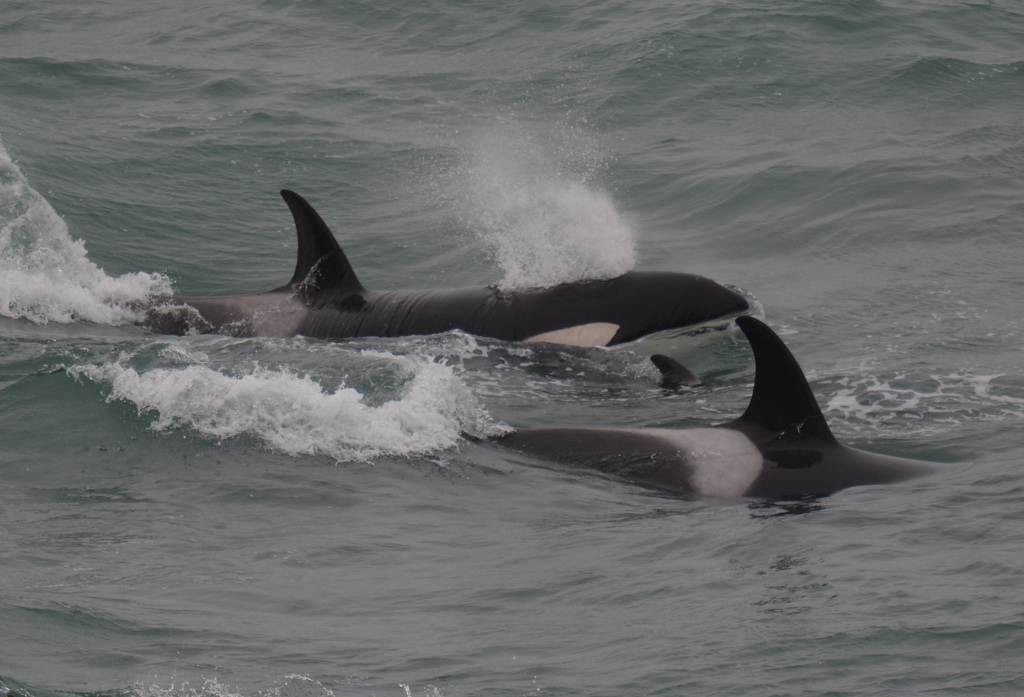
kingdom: Animalia
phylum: Chordata
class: Mammalia
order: Cetacea
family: Delphinidae
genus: Orcinus
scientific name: Orcinus orca
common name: Killer whale
